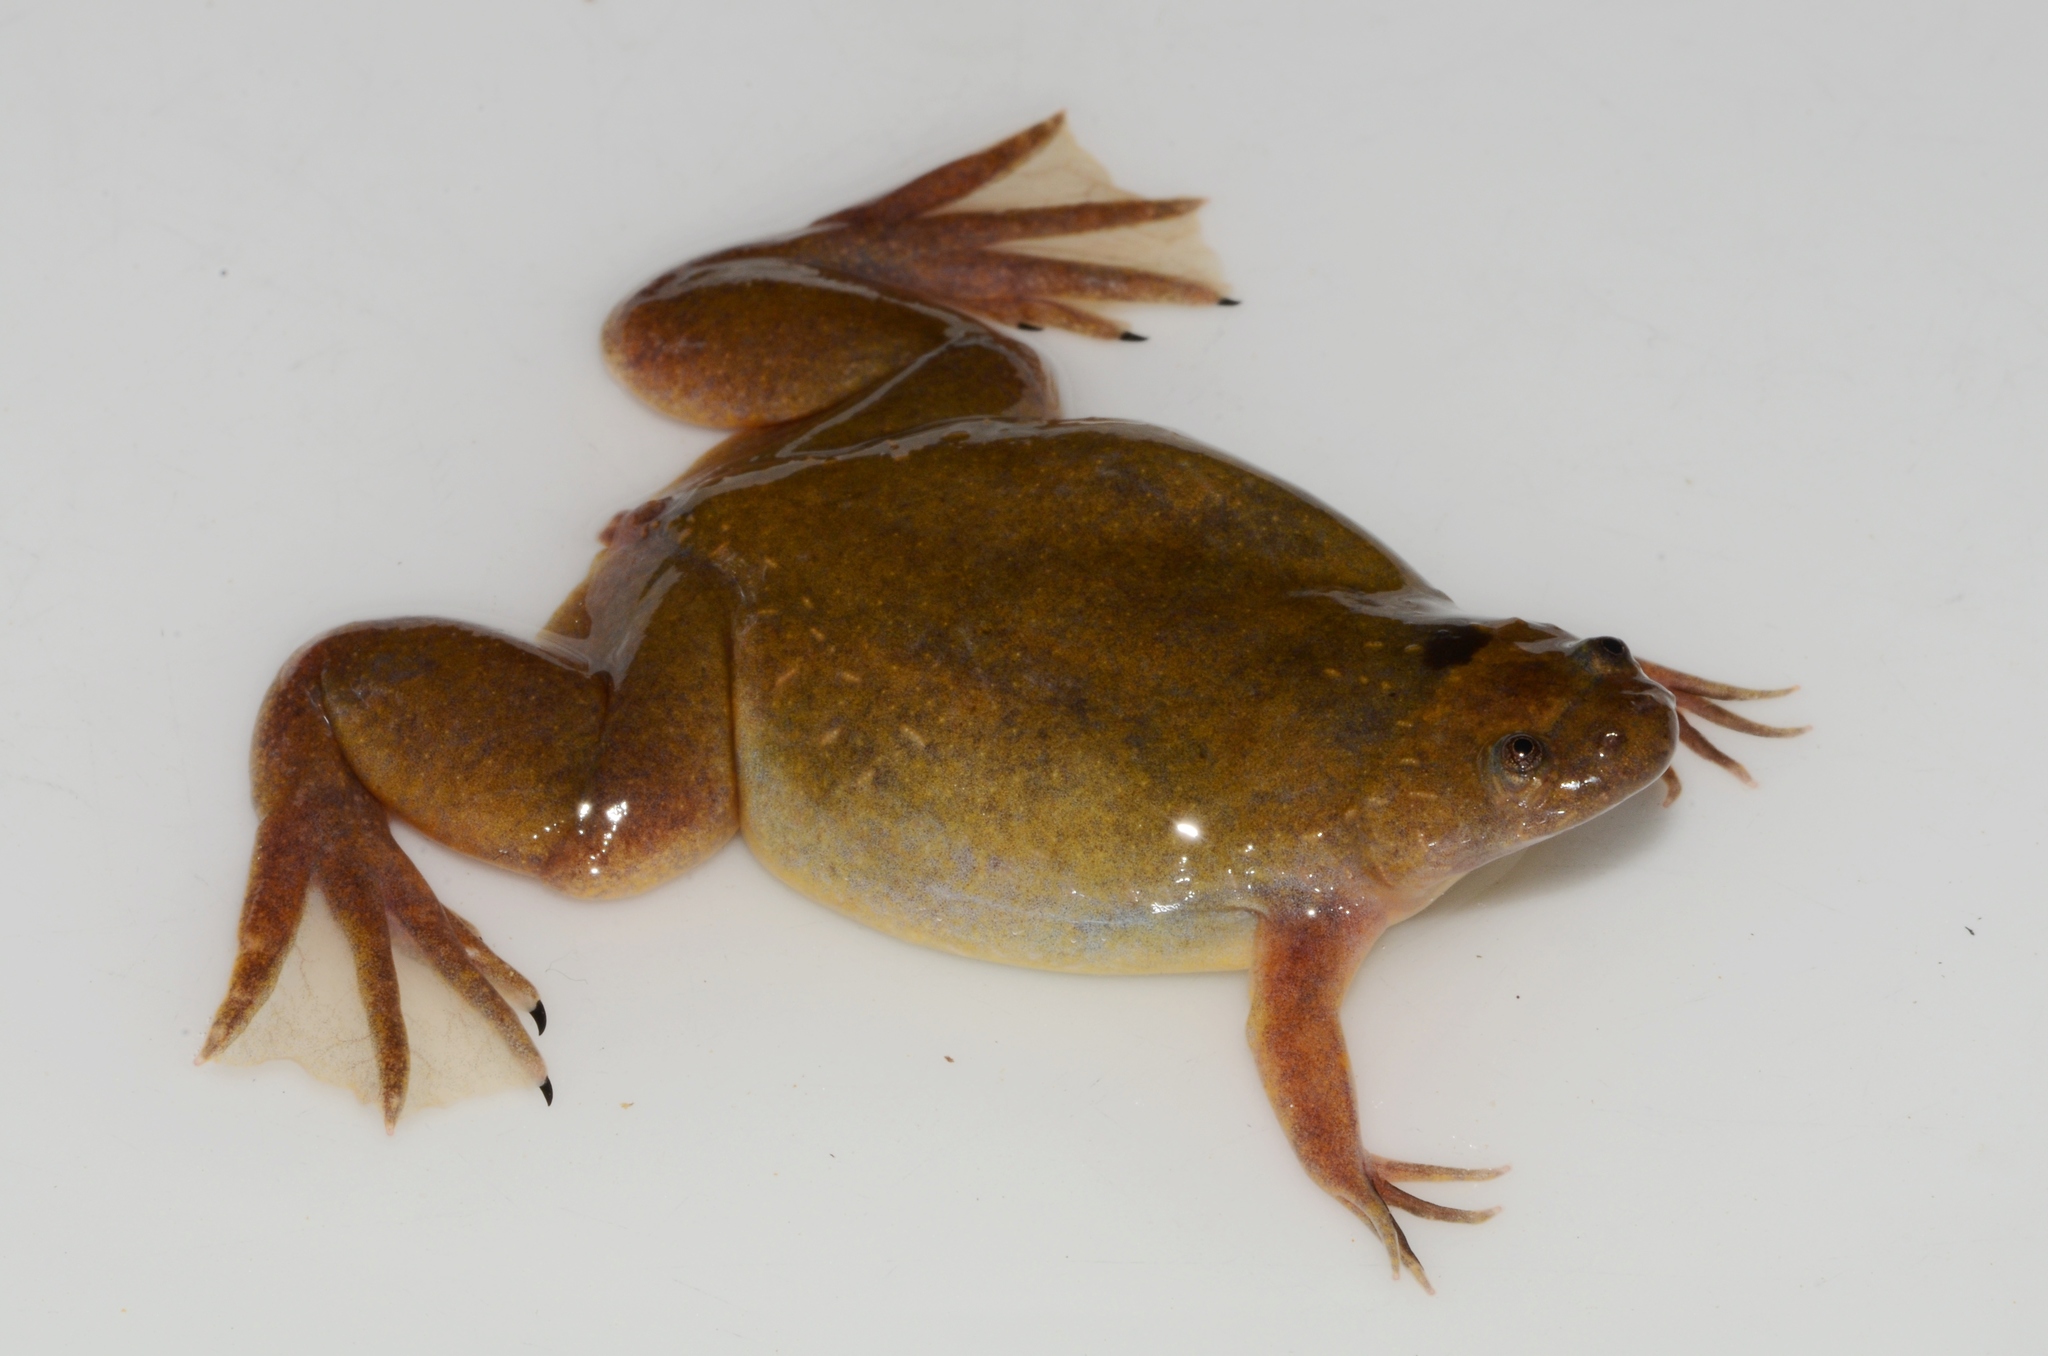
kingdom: Animalia
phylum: Chordata
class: Amphibia
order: Anura
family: Pipidae
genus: Xenopus
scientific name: Xenopus parafraseri
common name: Upland clawed frog
